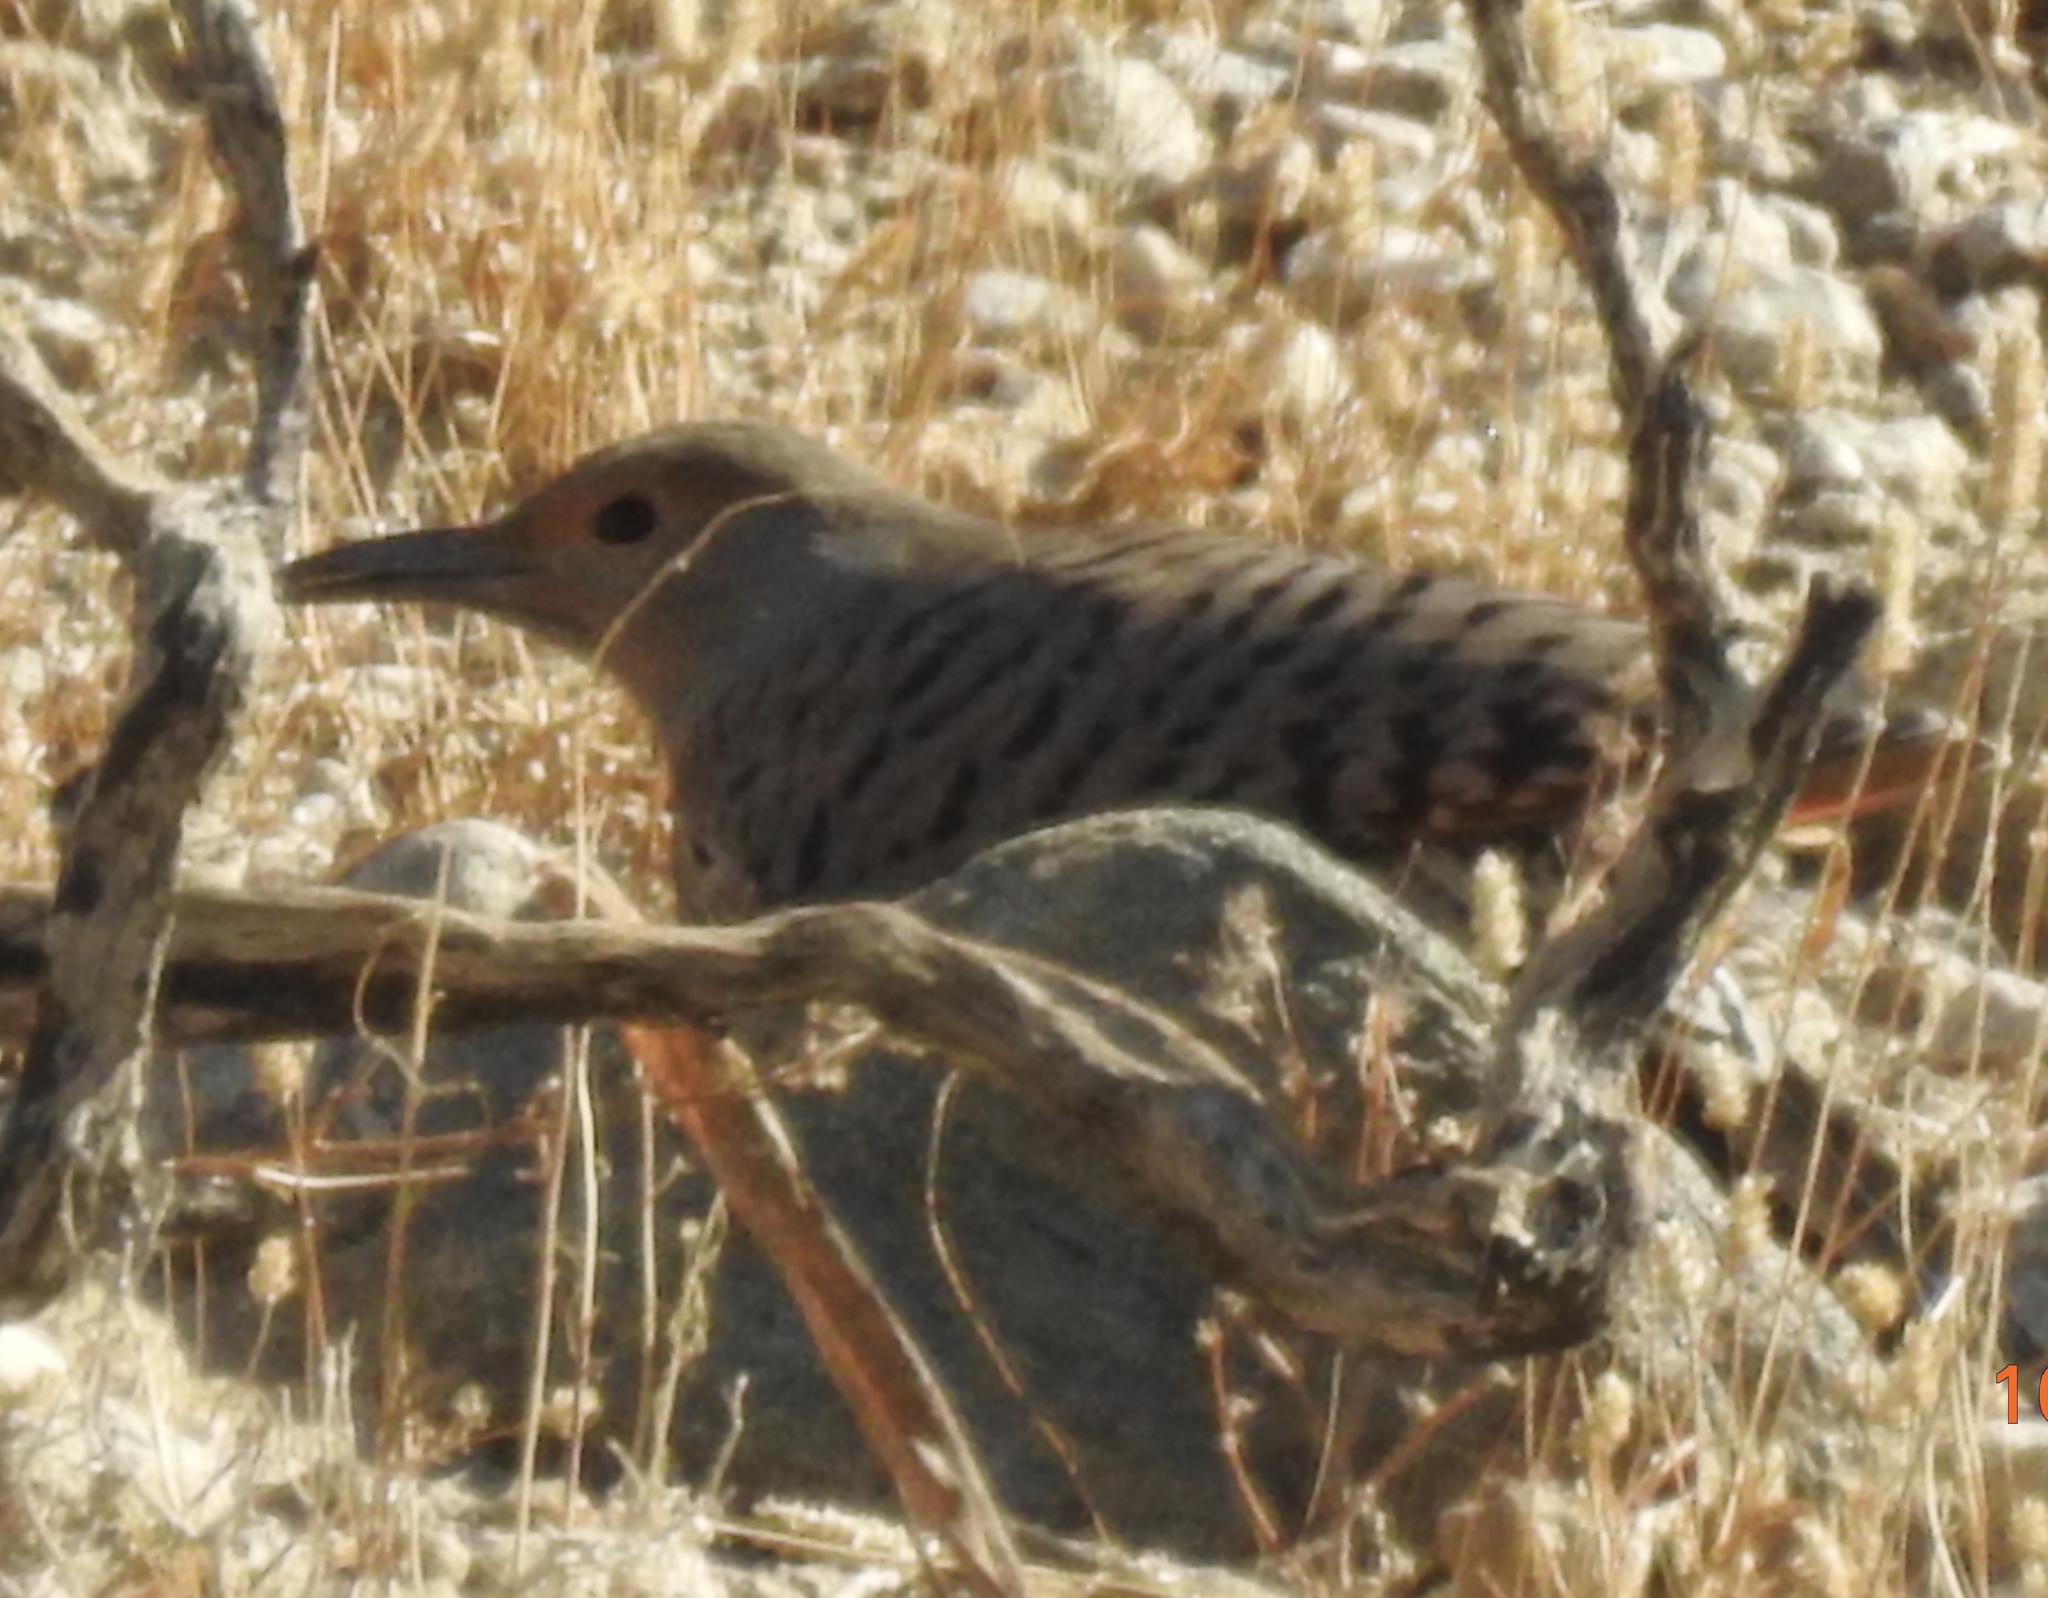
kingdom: Animalia
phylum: Chordata
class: Aves
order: Piciformes
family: Picidae
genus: Colaptes
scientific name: Colaptes auratus
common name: Northern flicker
